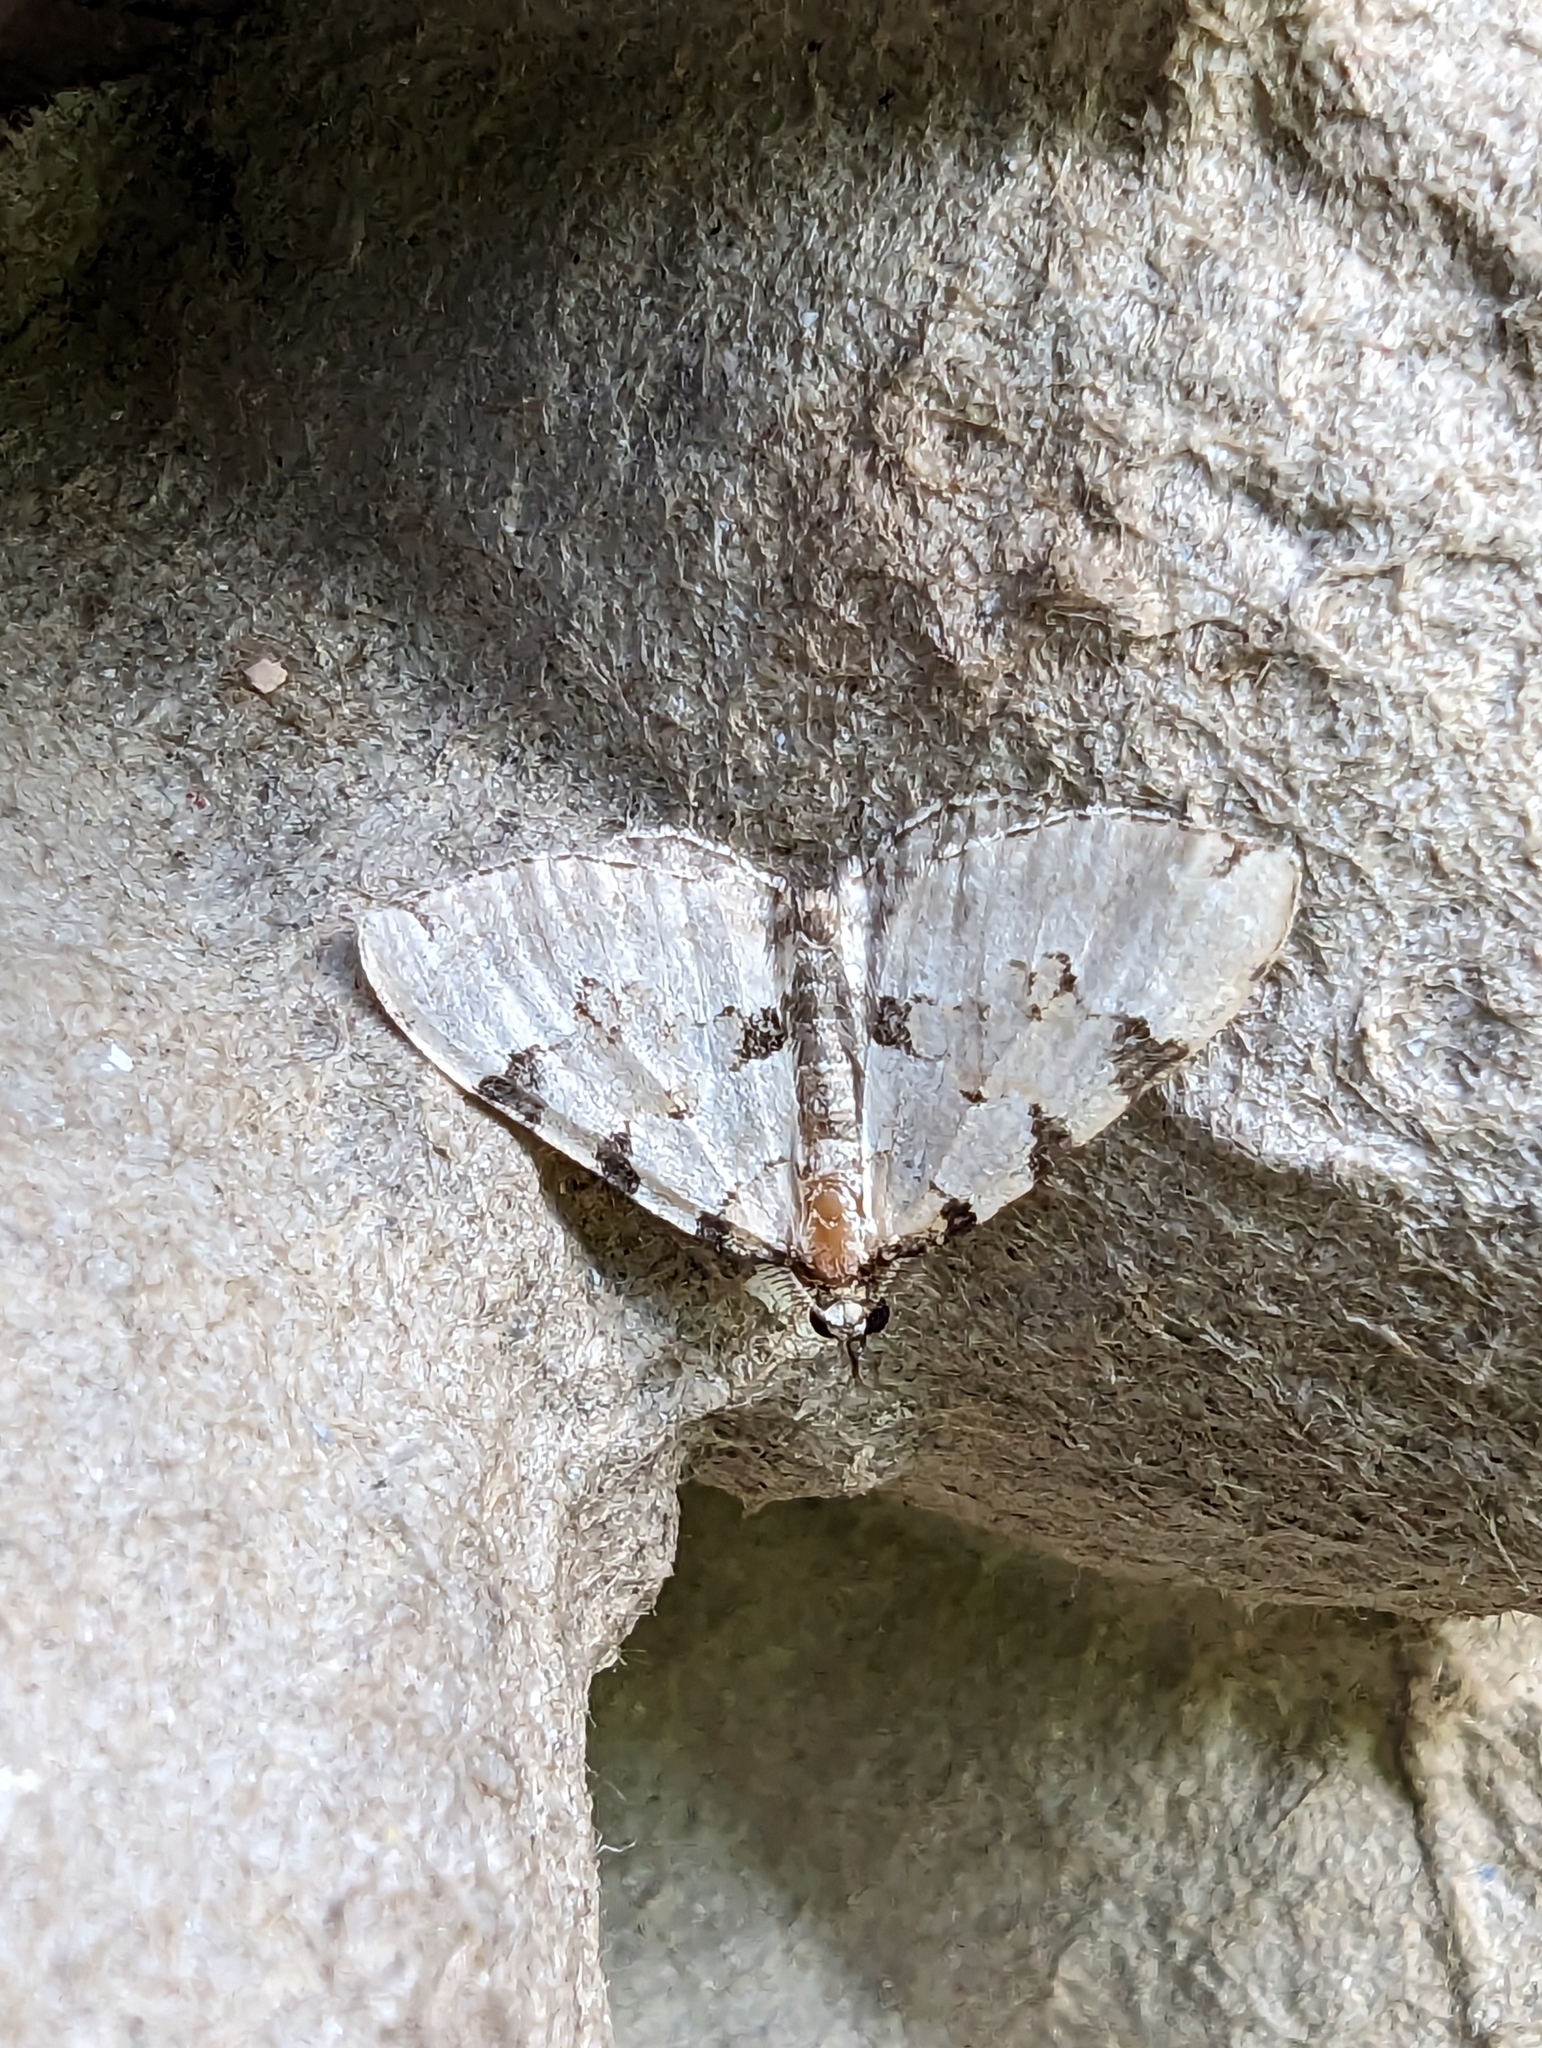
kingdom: Animalia
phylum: Arthropoda
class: Insecta
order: Lepidoptera
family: Geometridae
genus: Colostygia
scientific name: Colostygia pectinataria
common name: Green carpet
